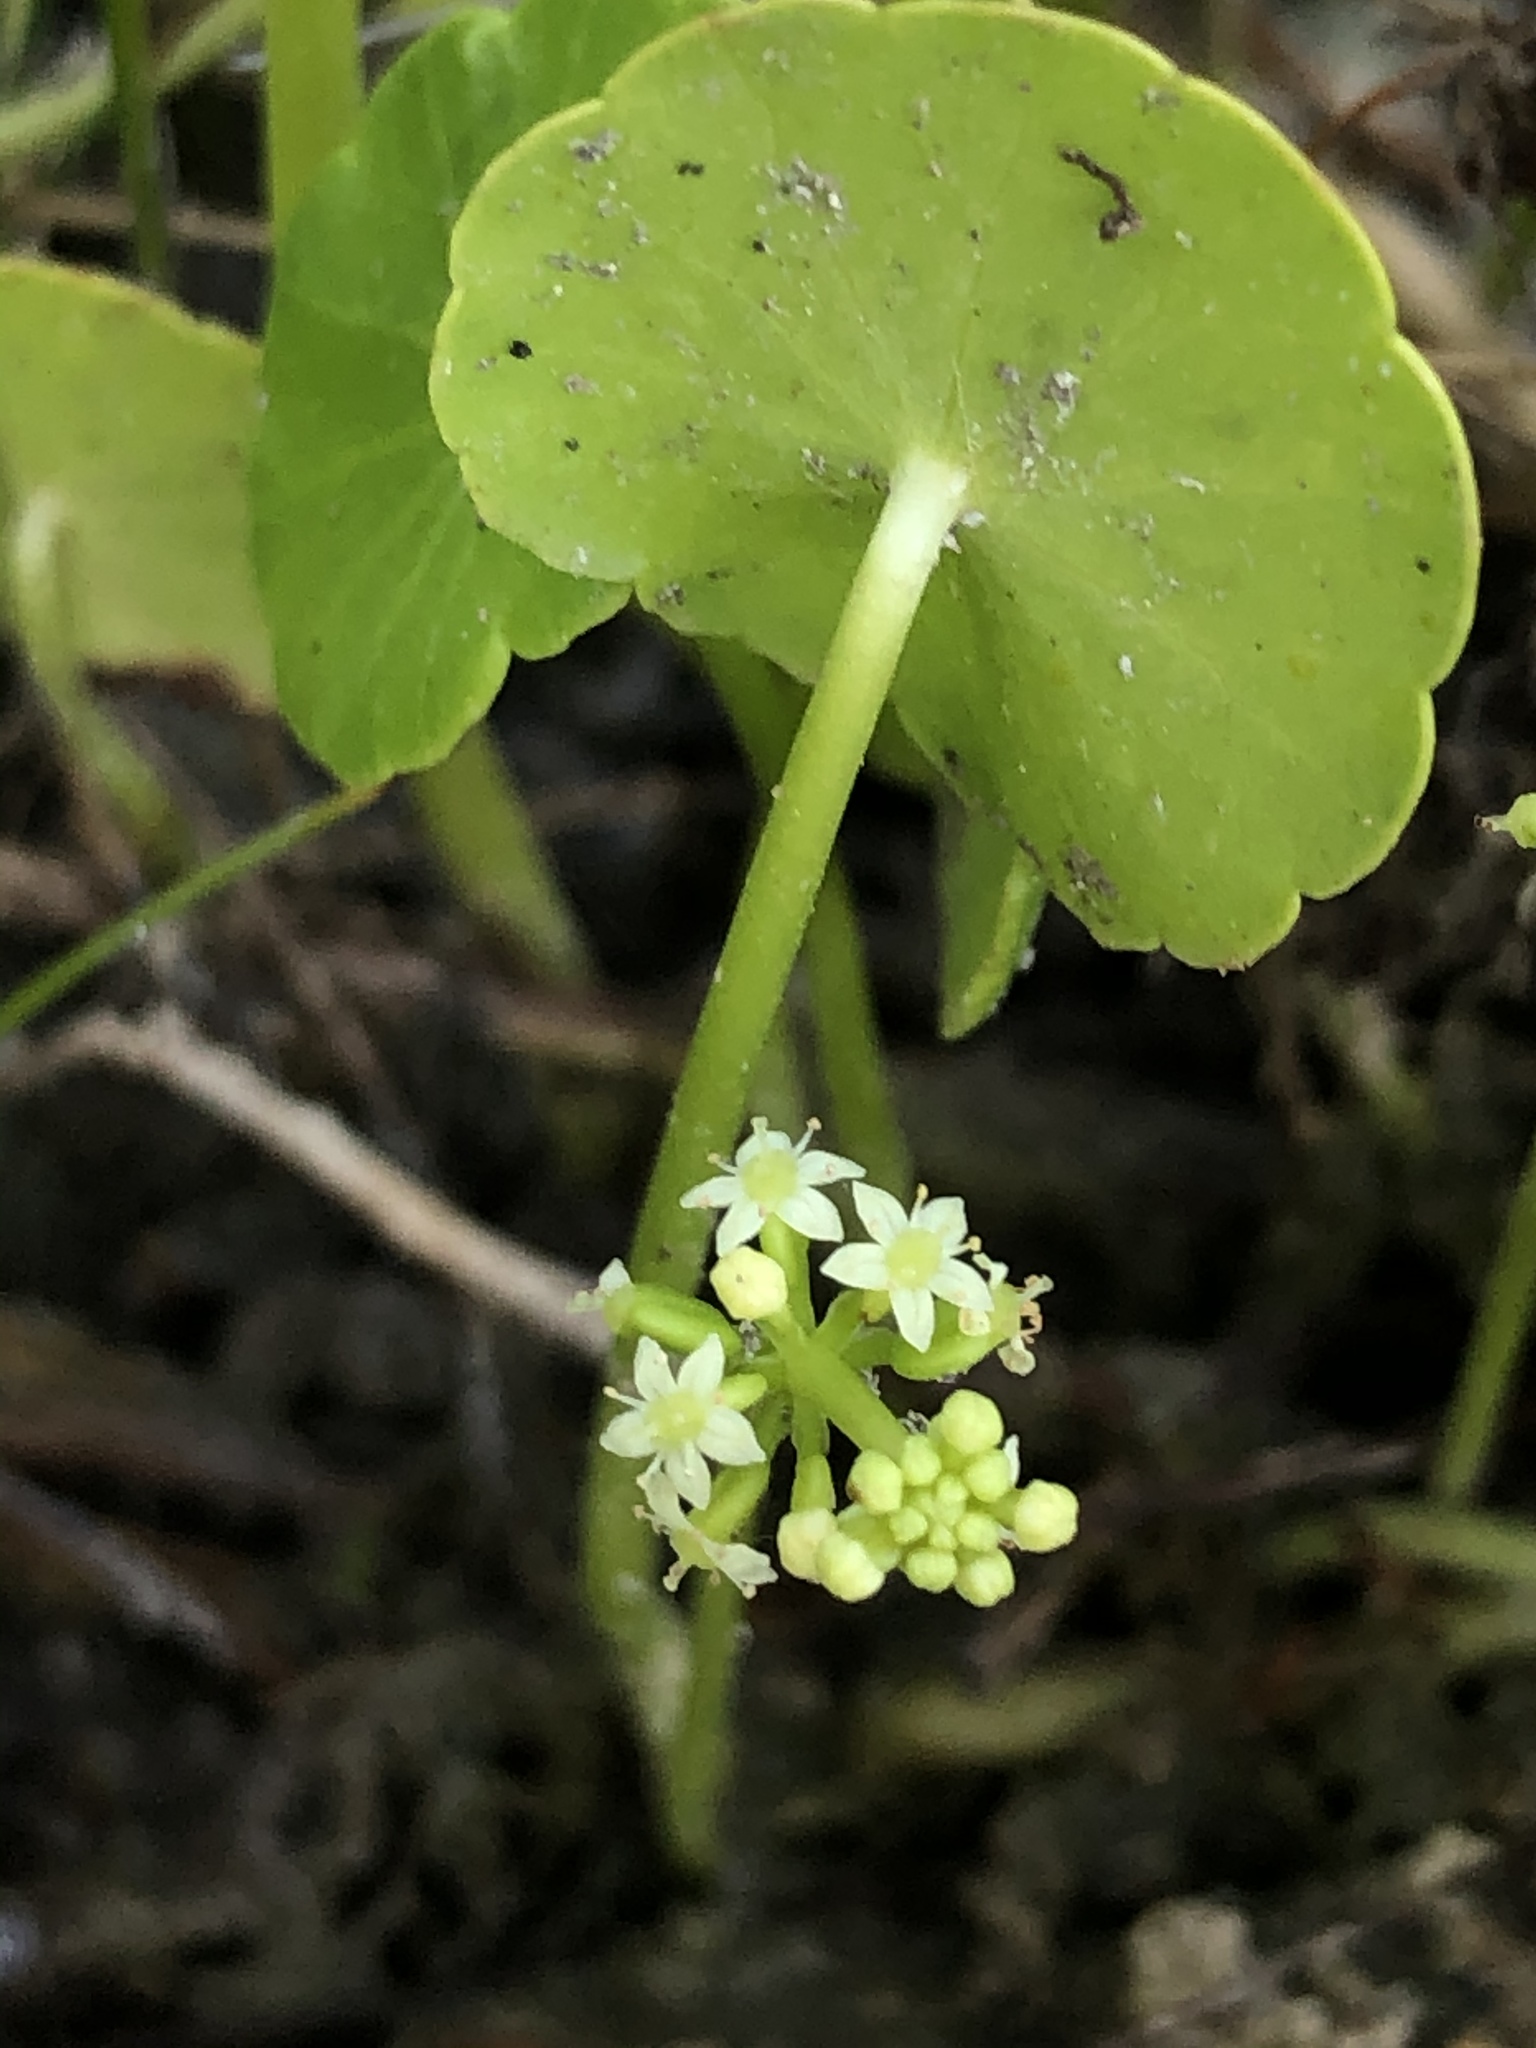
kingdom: Plantae
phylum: Tracheophyta
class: Magnoliopsida
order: Apiales
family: Araliaceae
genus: Hydrocotyle
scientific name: Hydrocotyle verticillata
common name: Whorled marshpennywort
